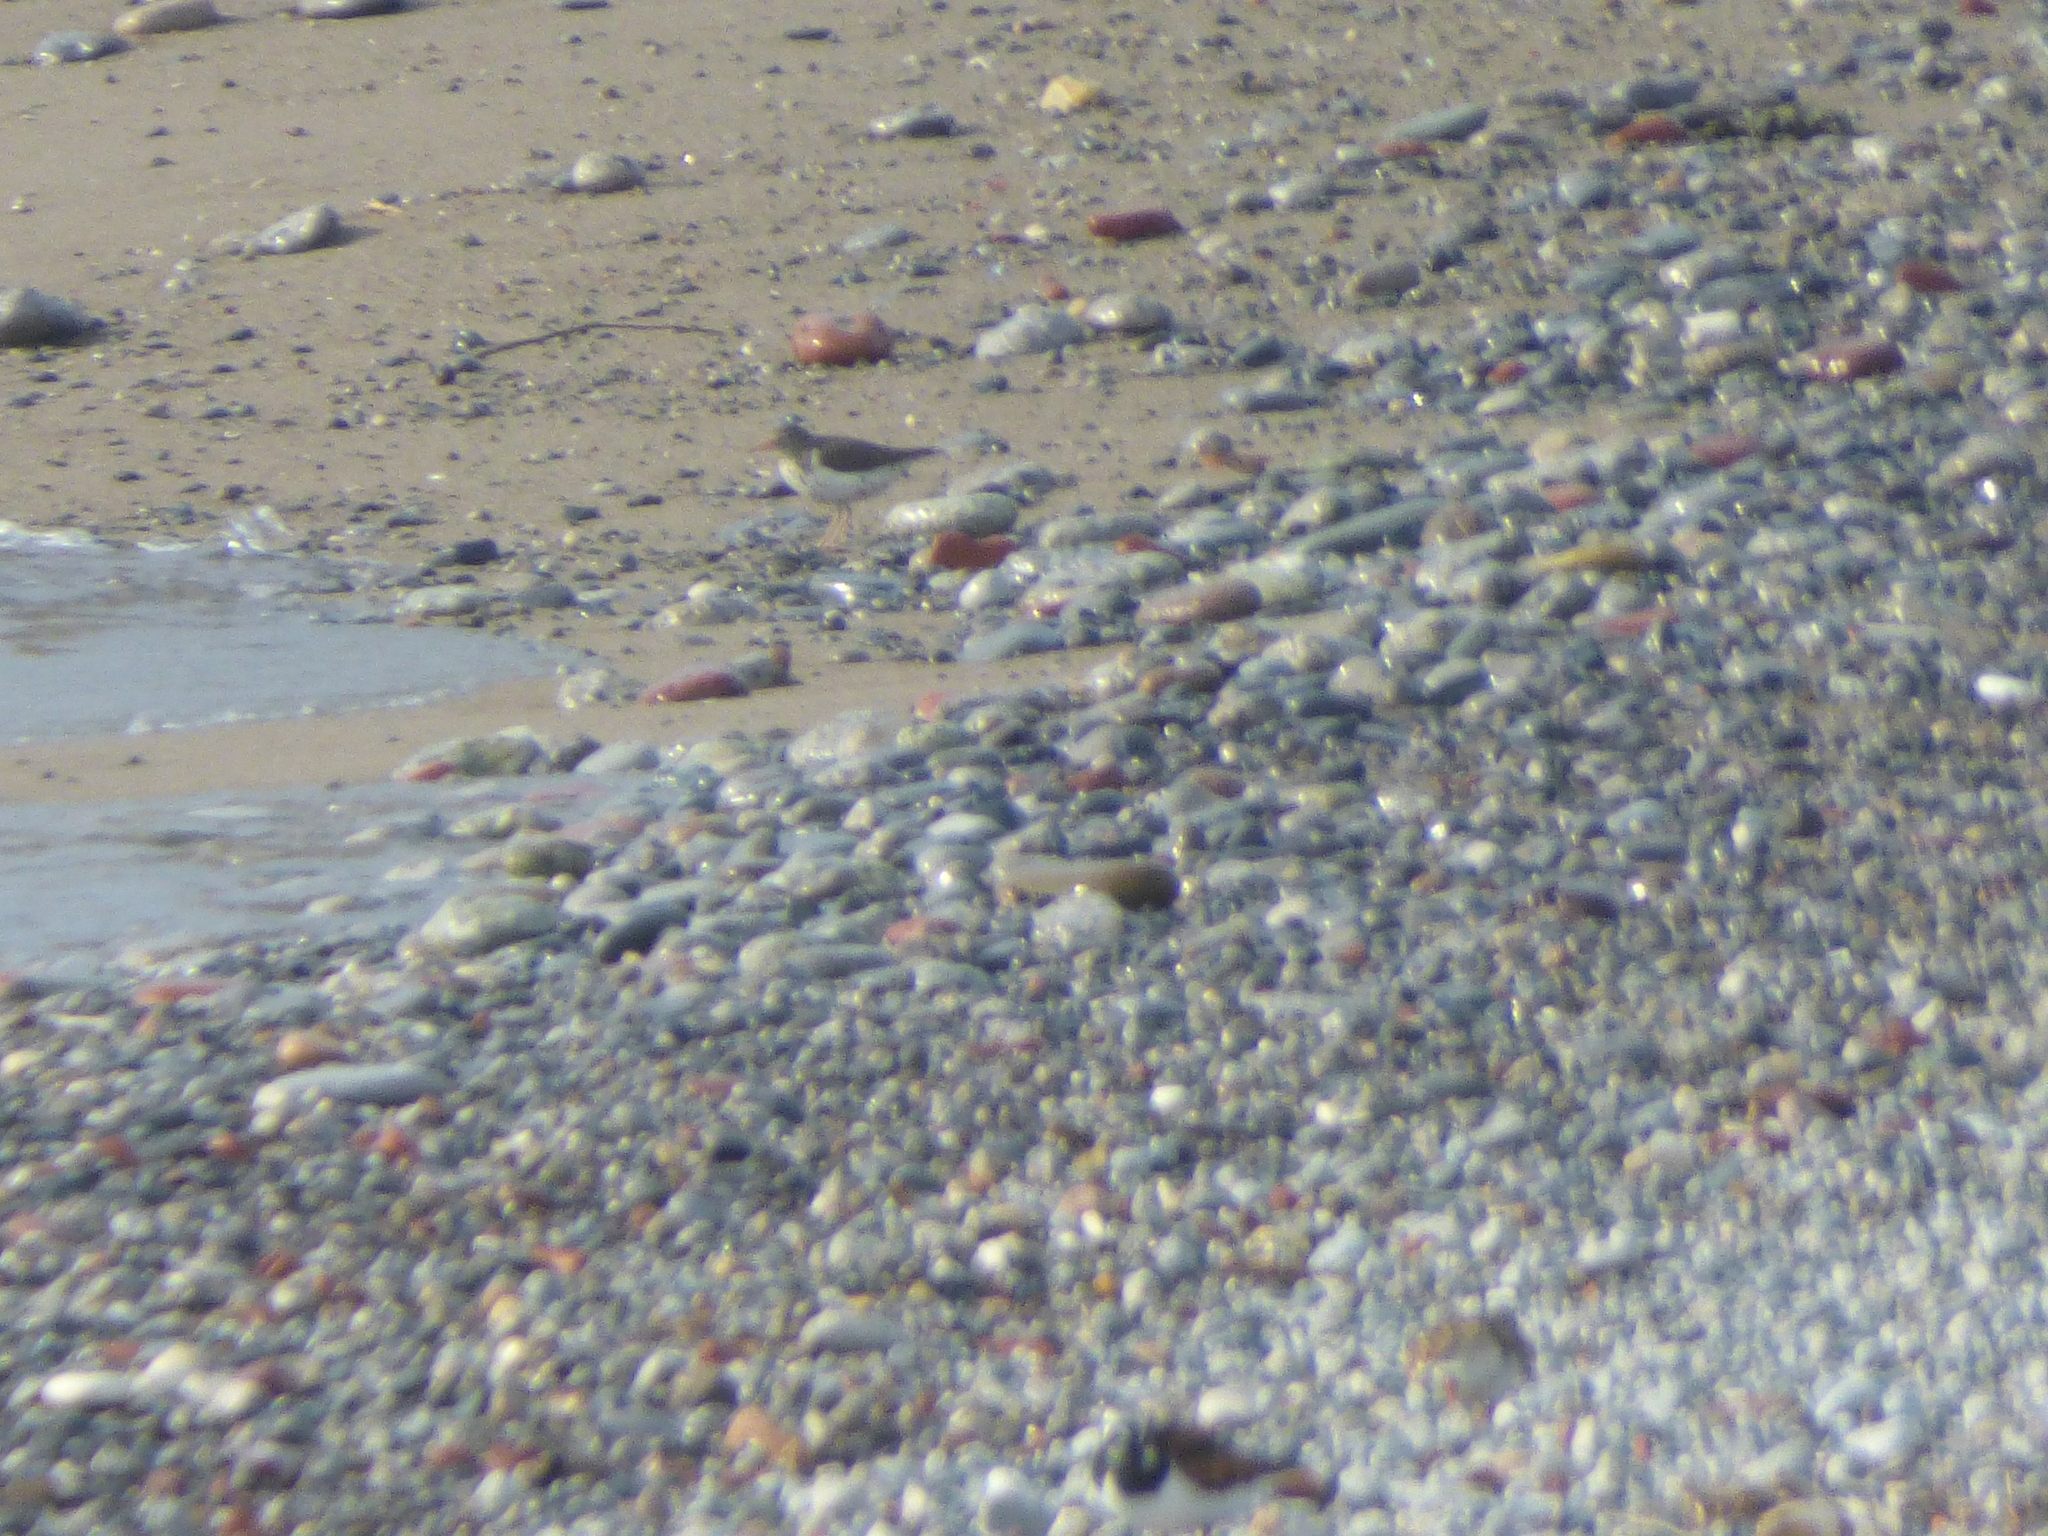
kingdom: Animalia
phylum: Chordata
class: Aves
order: Charadriiformes
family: Scolopacidae
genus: Actitis
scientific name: Actitis macularius
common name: Spotted sandpiper
